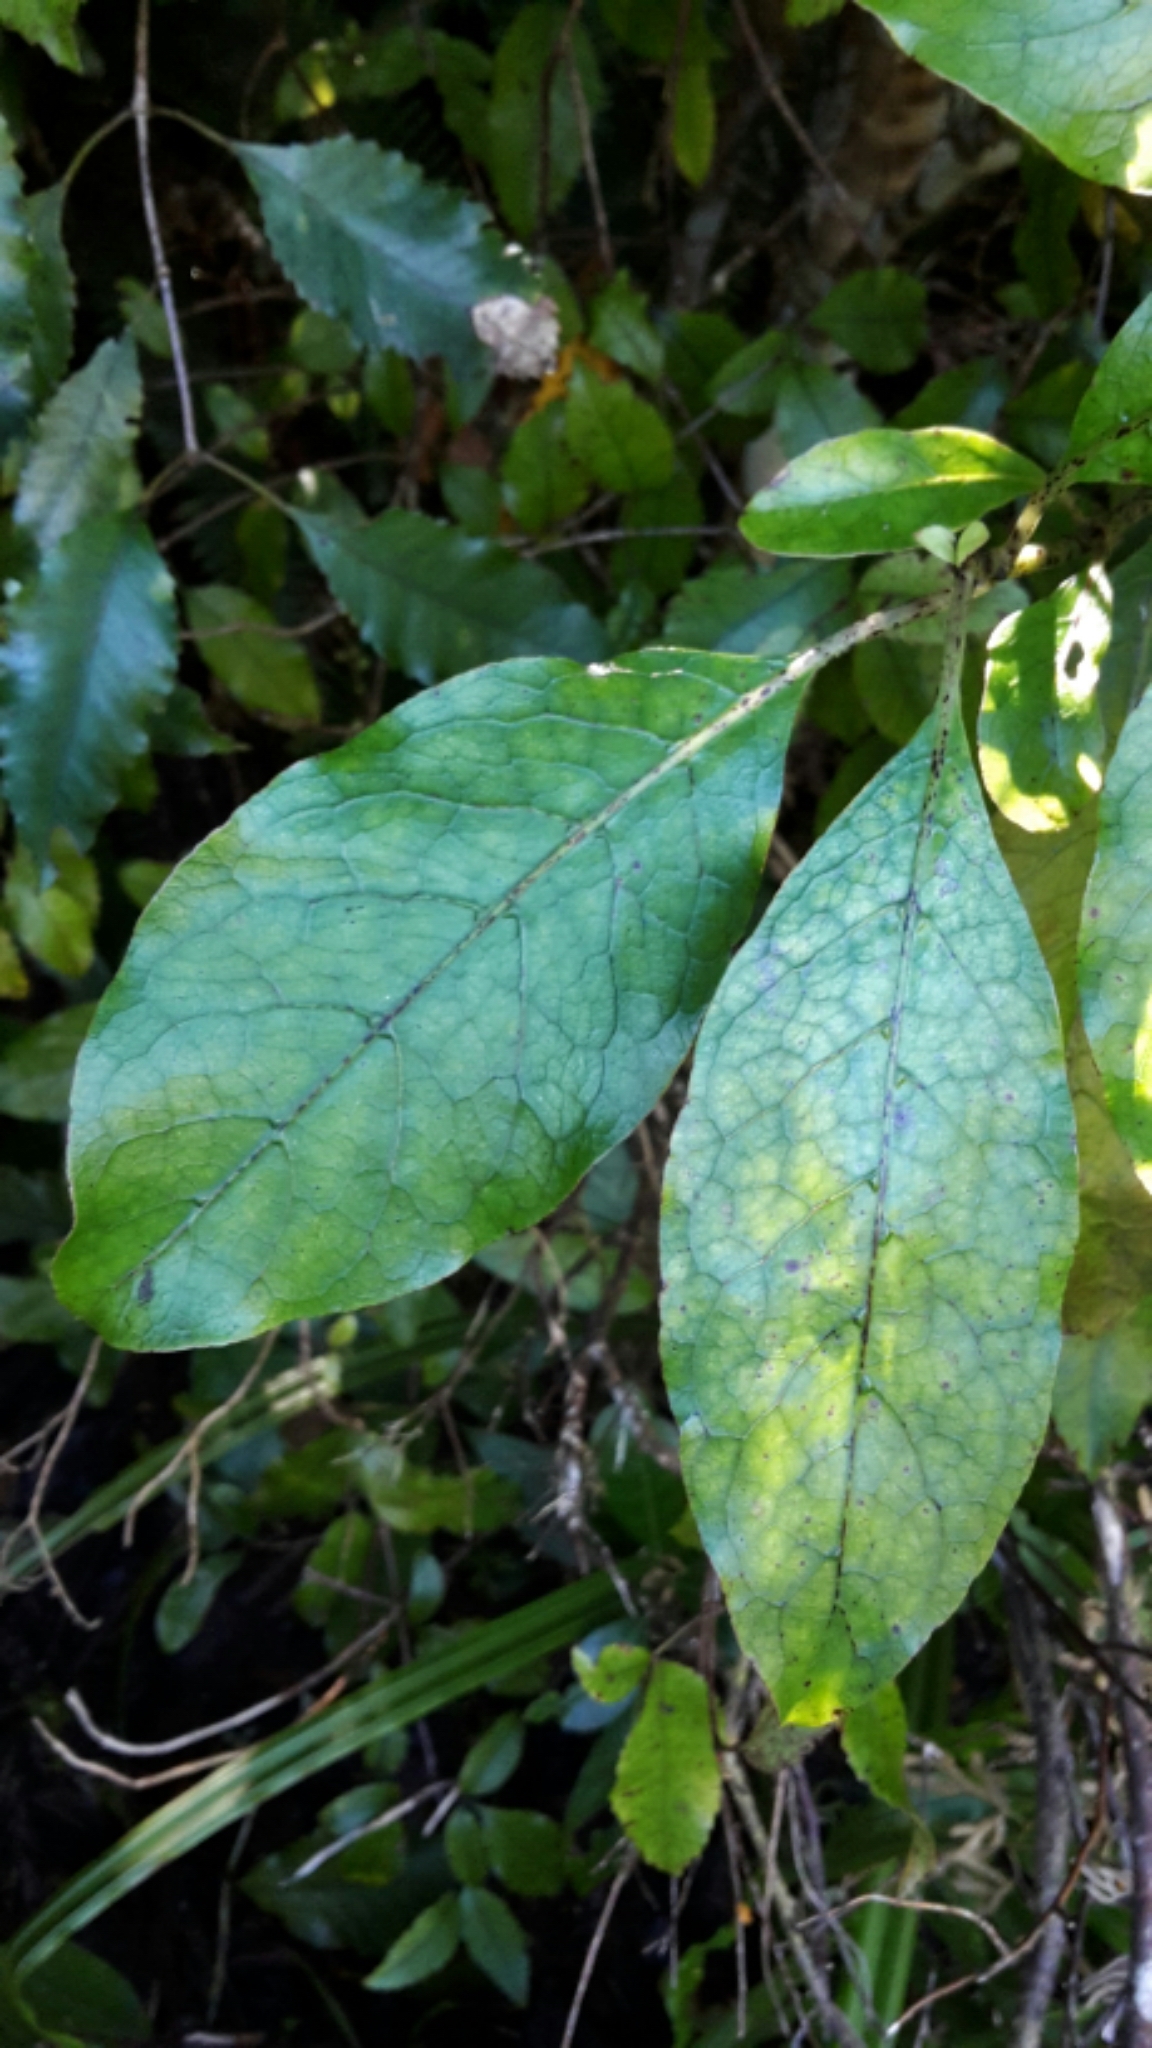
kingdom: Plantae
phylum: Tracheophyta
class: Magnoliopsida
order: Gentianales
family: Rubiaceae
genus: Coprosma
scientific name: Coprosma autumnalis
